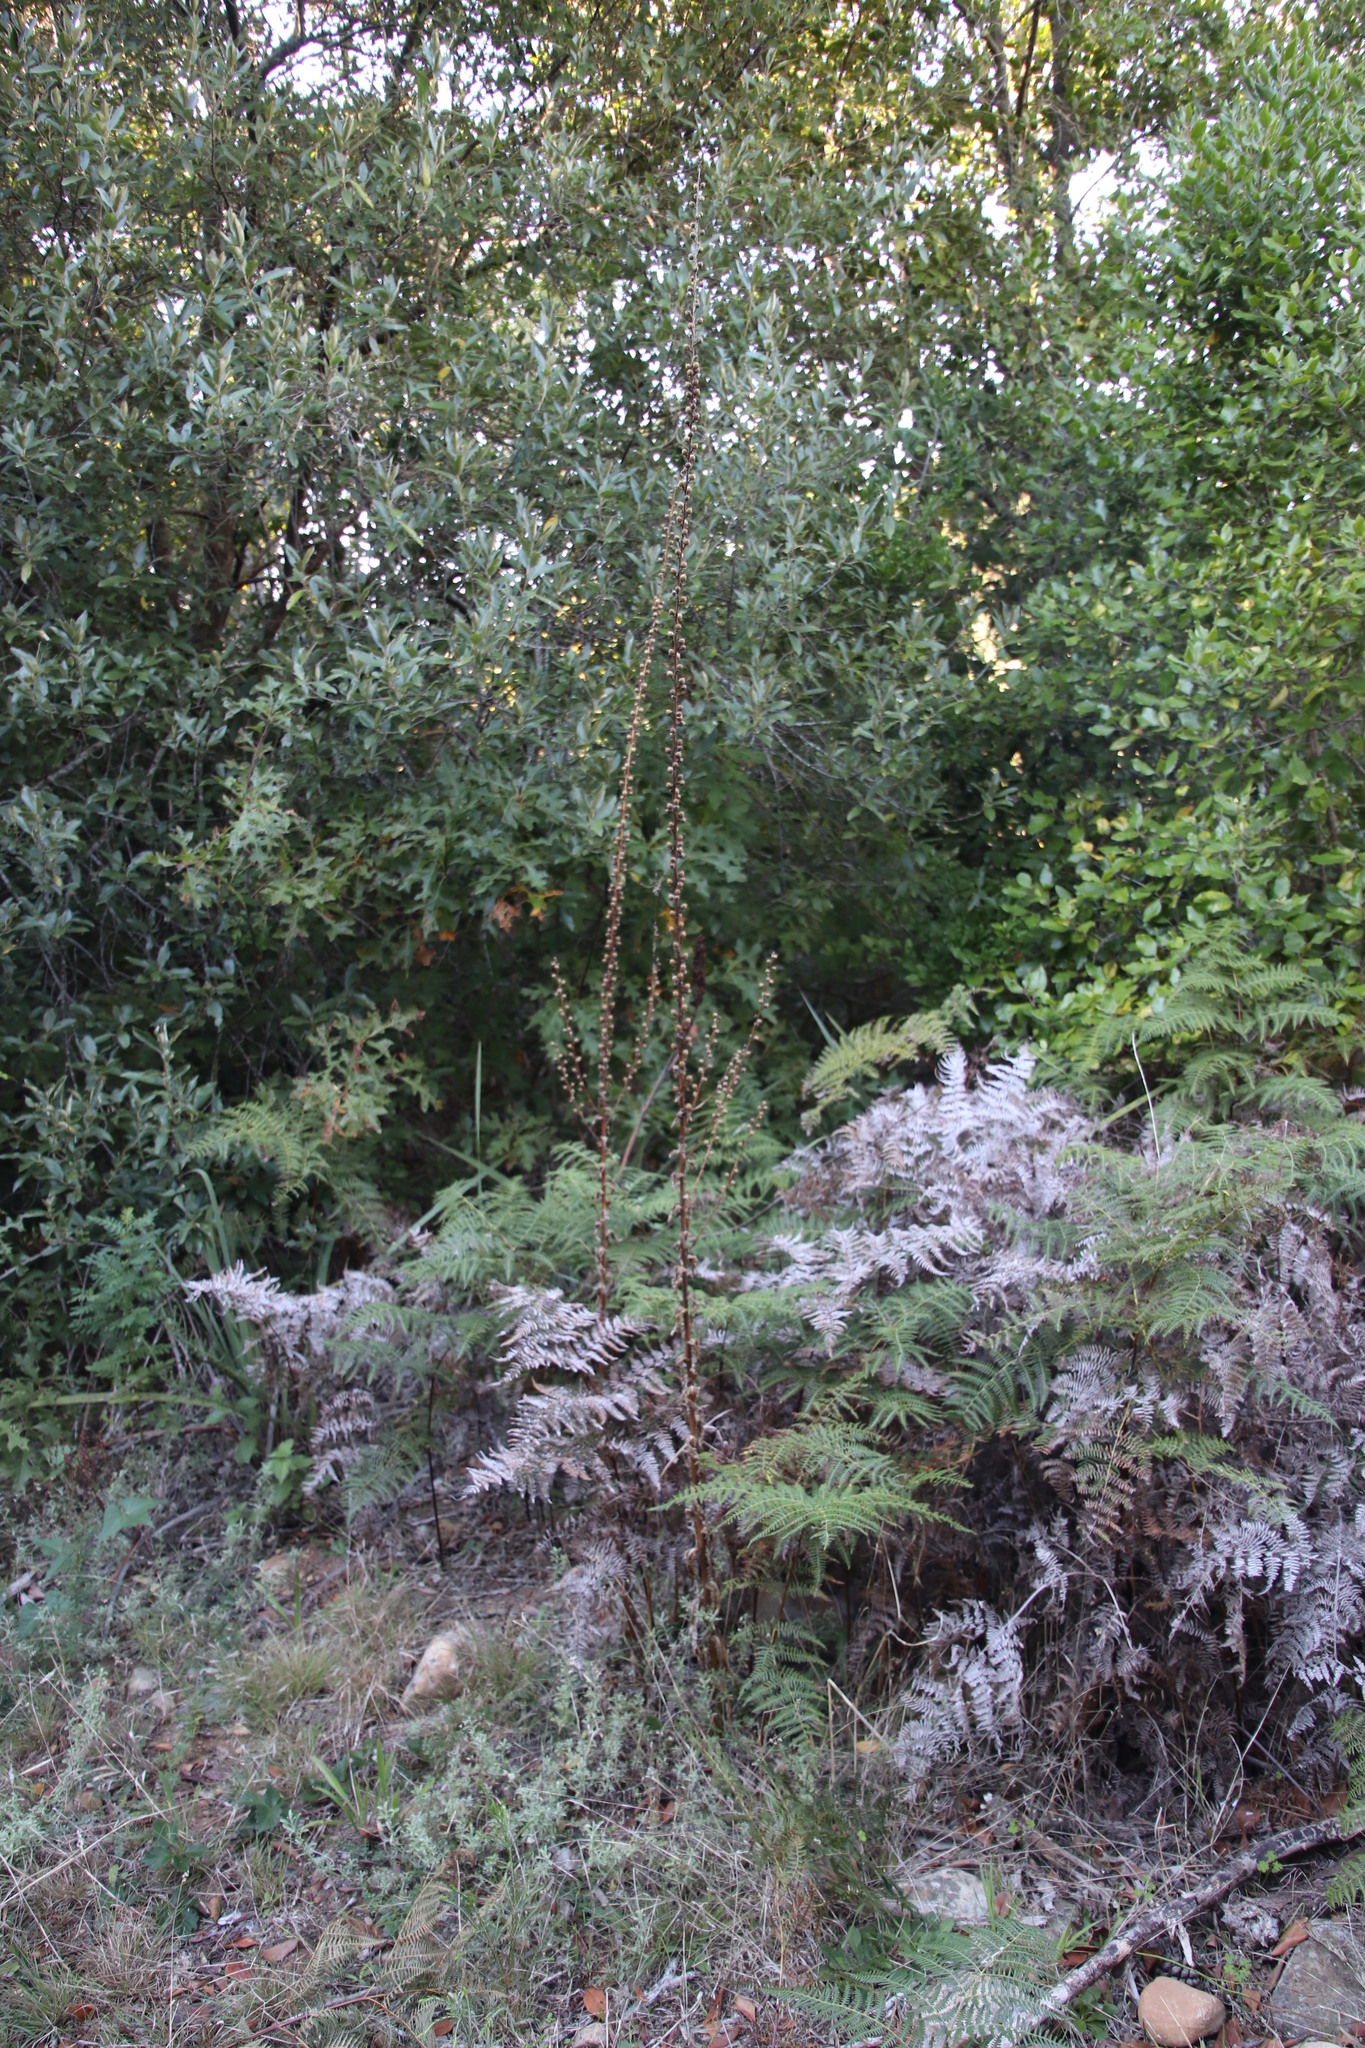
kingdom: Plantae
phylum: Tracheophyta
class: Magnoliopsida
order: Lamiales
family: Scrophulariaceae
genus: Verbascum
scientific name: Verbascum virgatum
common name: Twiggy mullein
